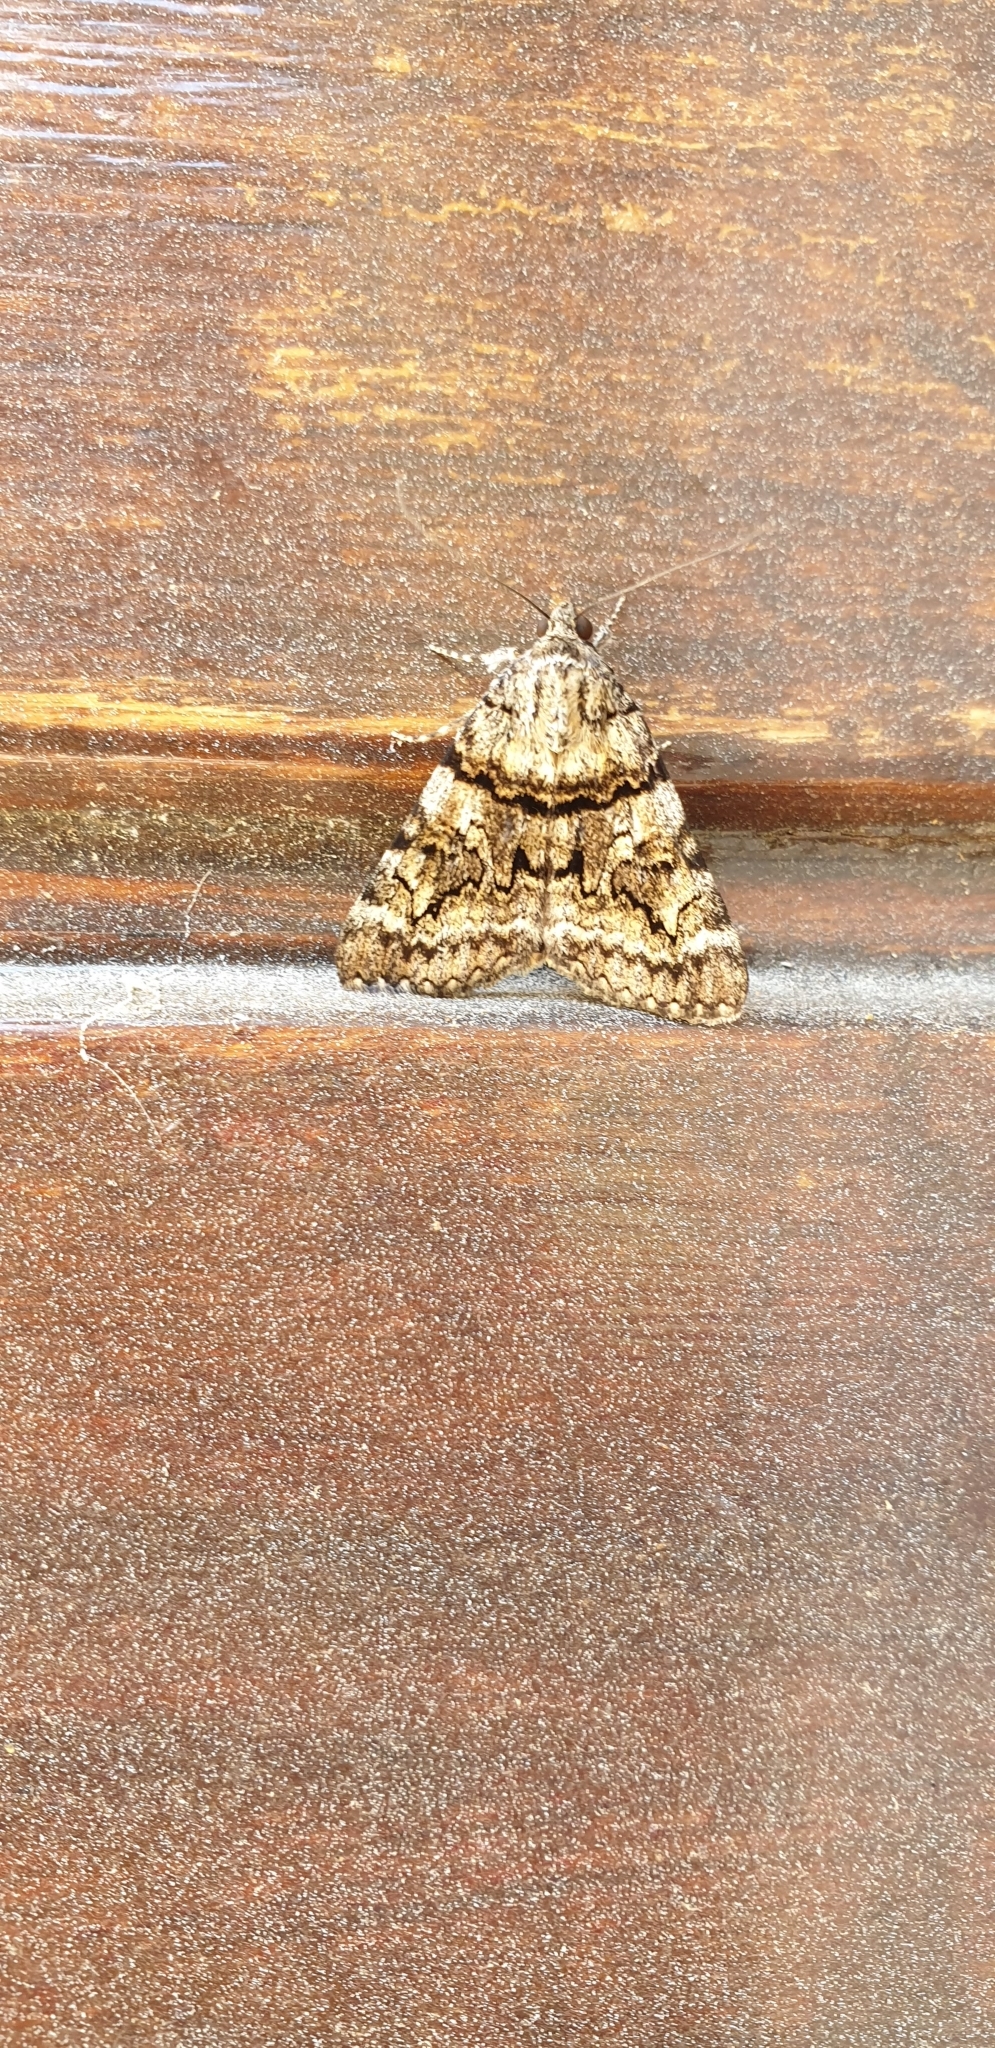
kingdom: Animalia
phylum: Arthropoda
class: Insecta
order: Lepidoptera
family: Erebidae
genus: Catocala
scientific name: Catocala nymphagoga
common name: Oak yellow underwing
